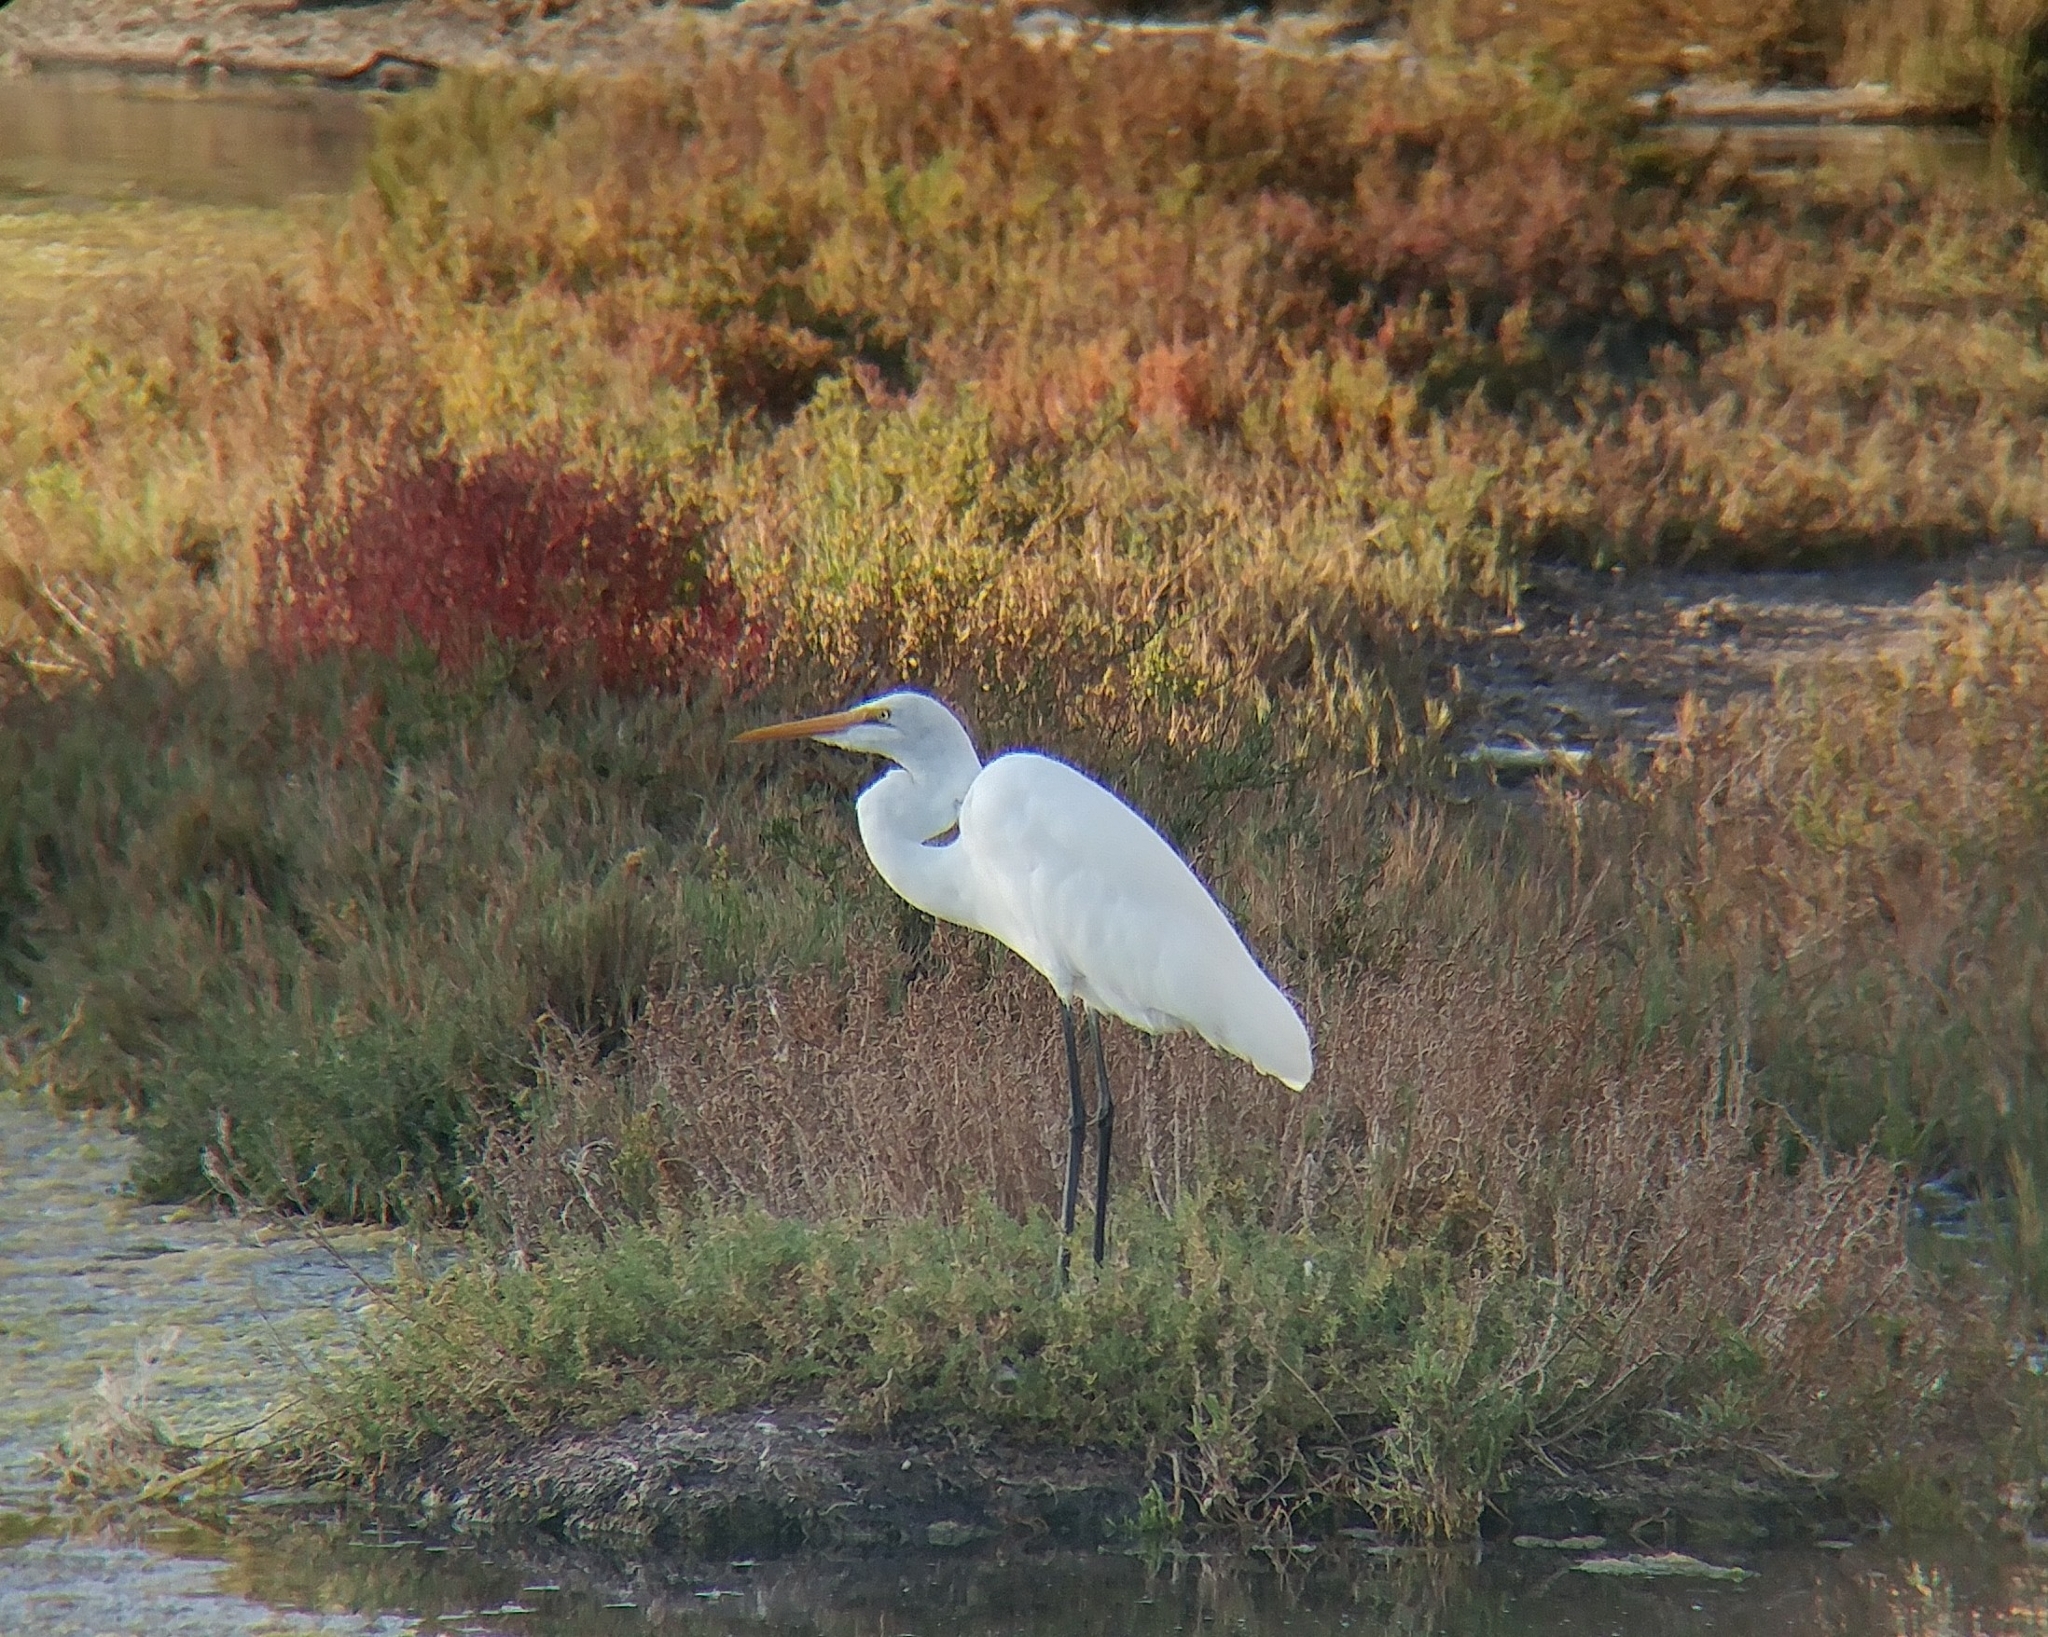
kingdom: Animalia
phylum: Chordata
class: Aves
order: Pelecaniformes
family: Ardeidae
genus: Ardea
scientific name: Ardea alba
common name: Great egret
